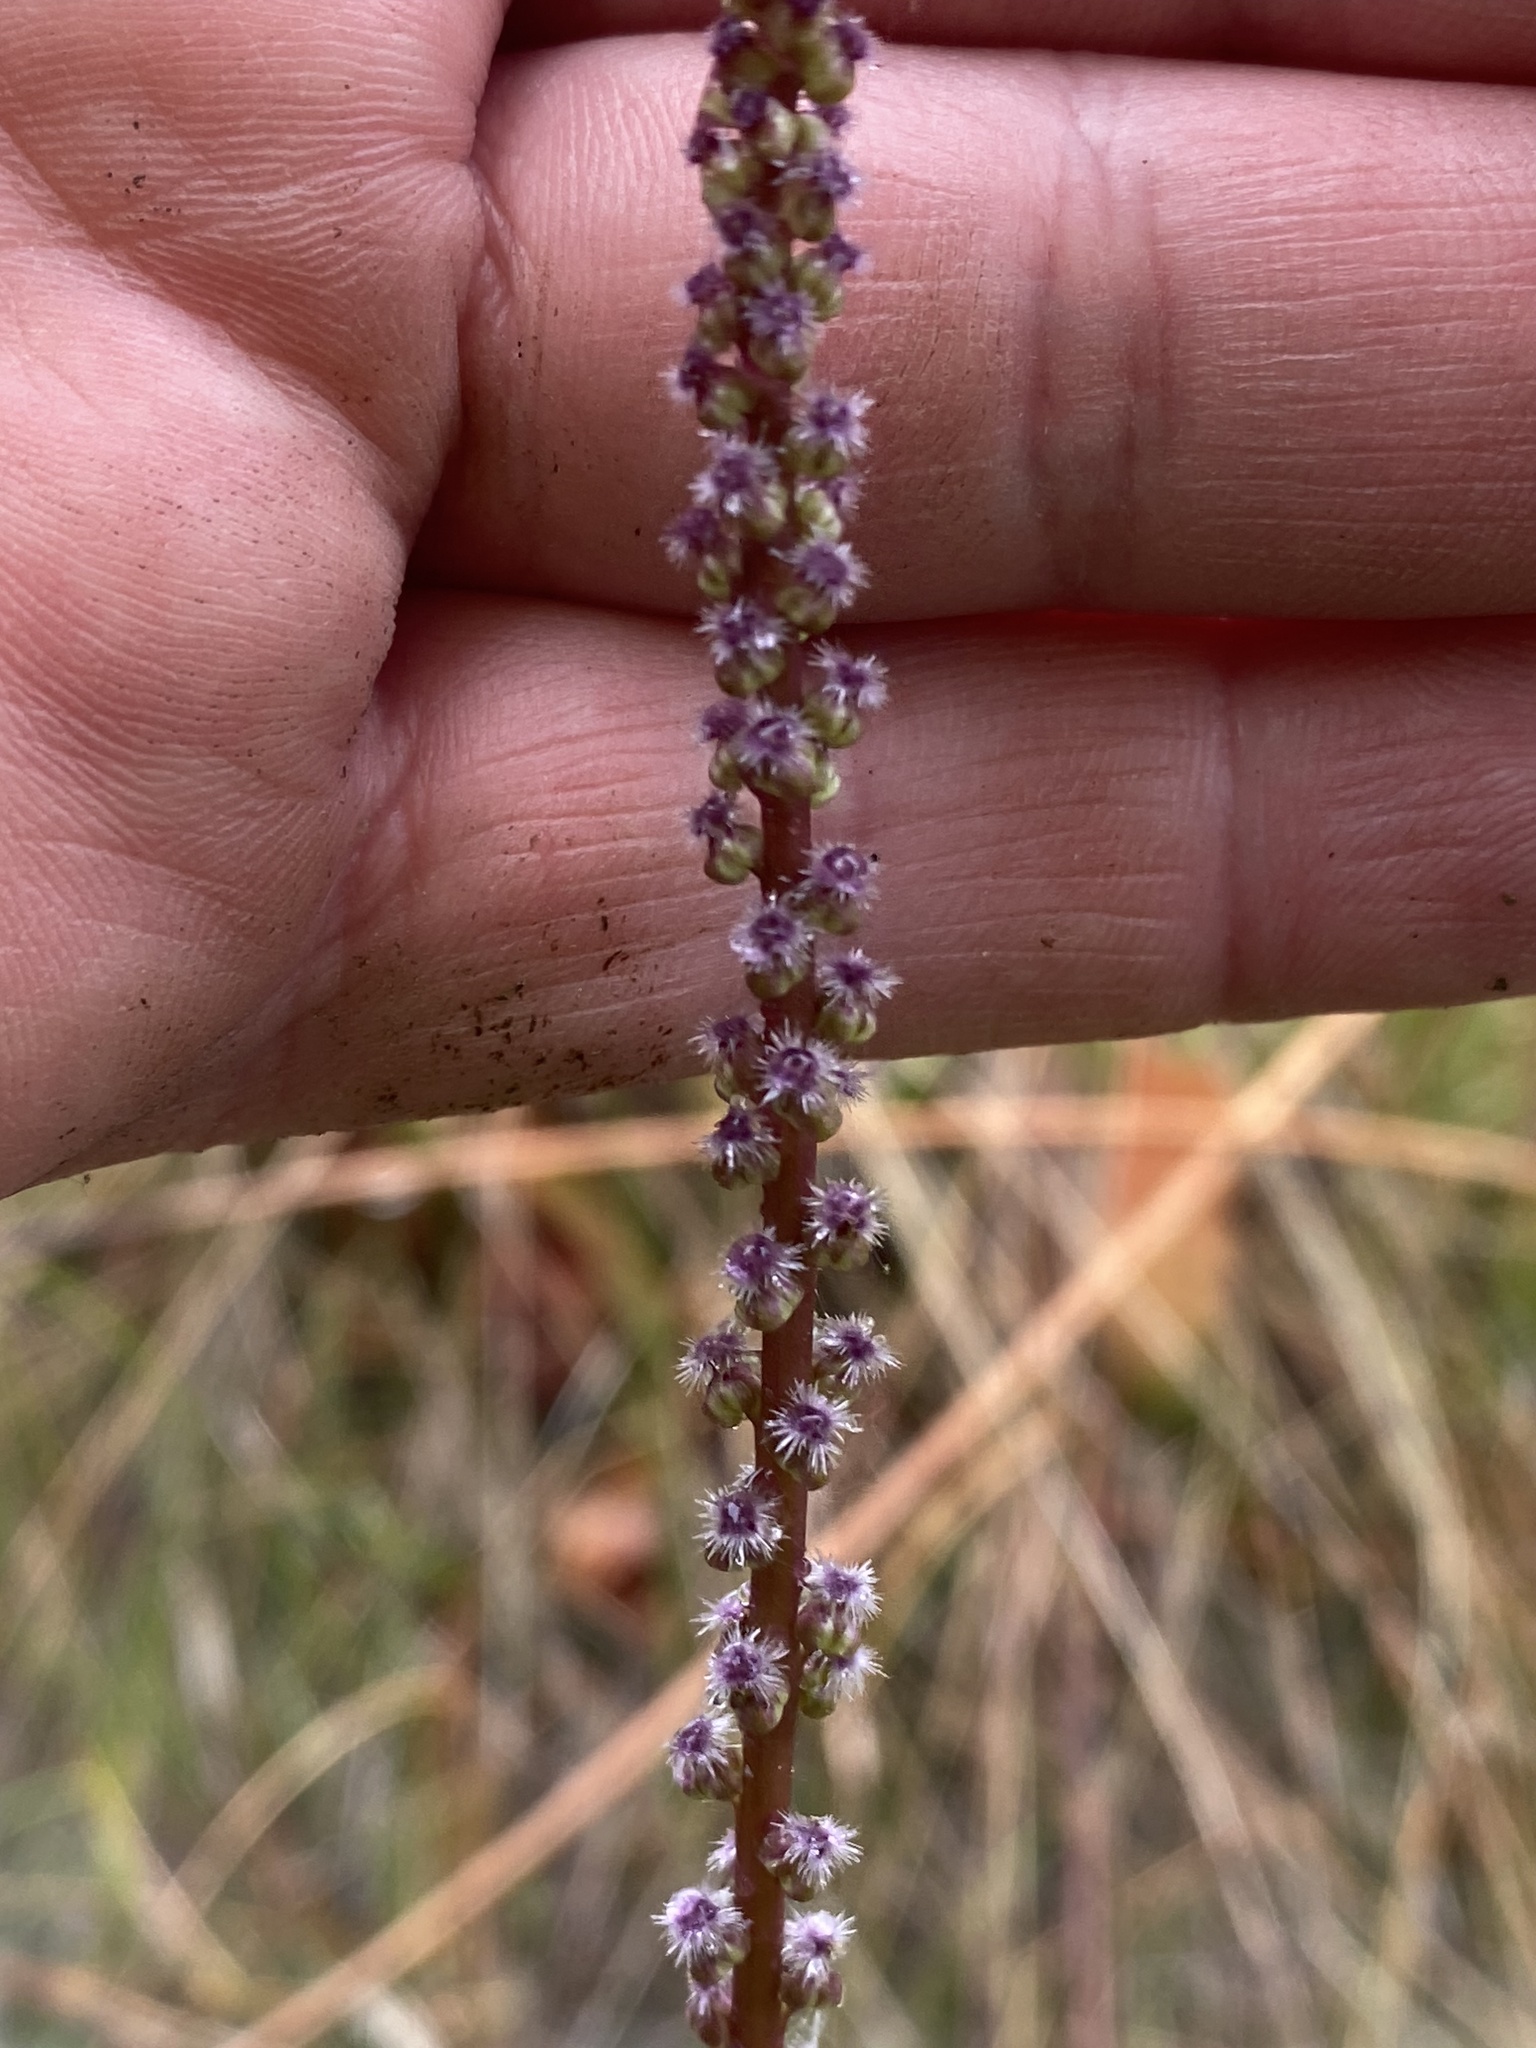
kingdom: Plantae
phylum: Tracheophyta
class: Liliopsida
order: Alismatales
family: Juncaginaceae
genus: Triglochin
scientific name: Triglochin maritima
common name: Sea arrowgrass
